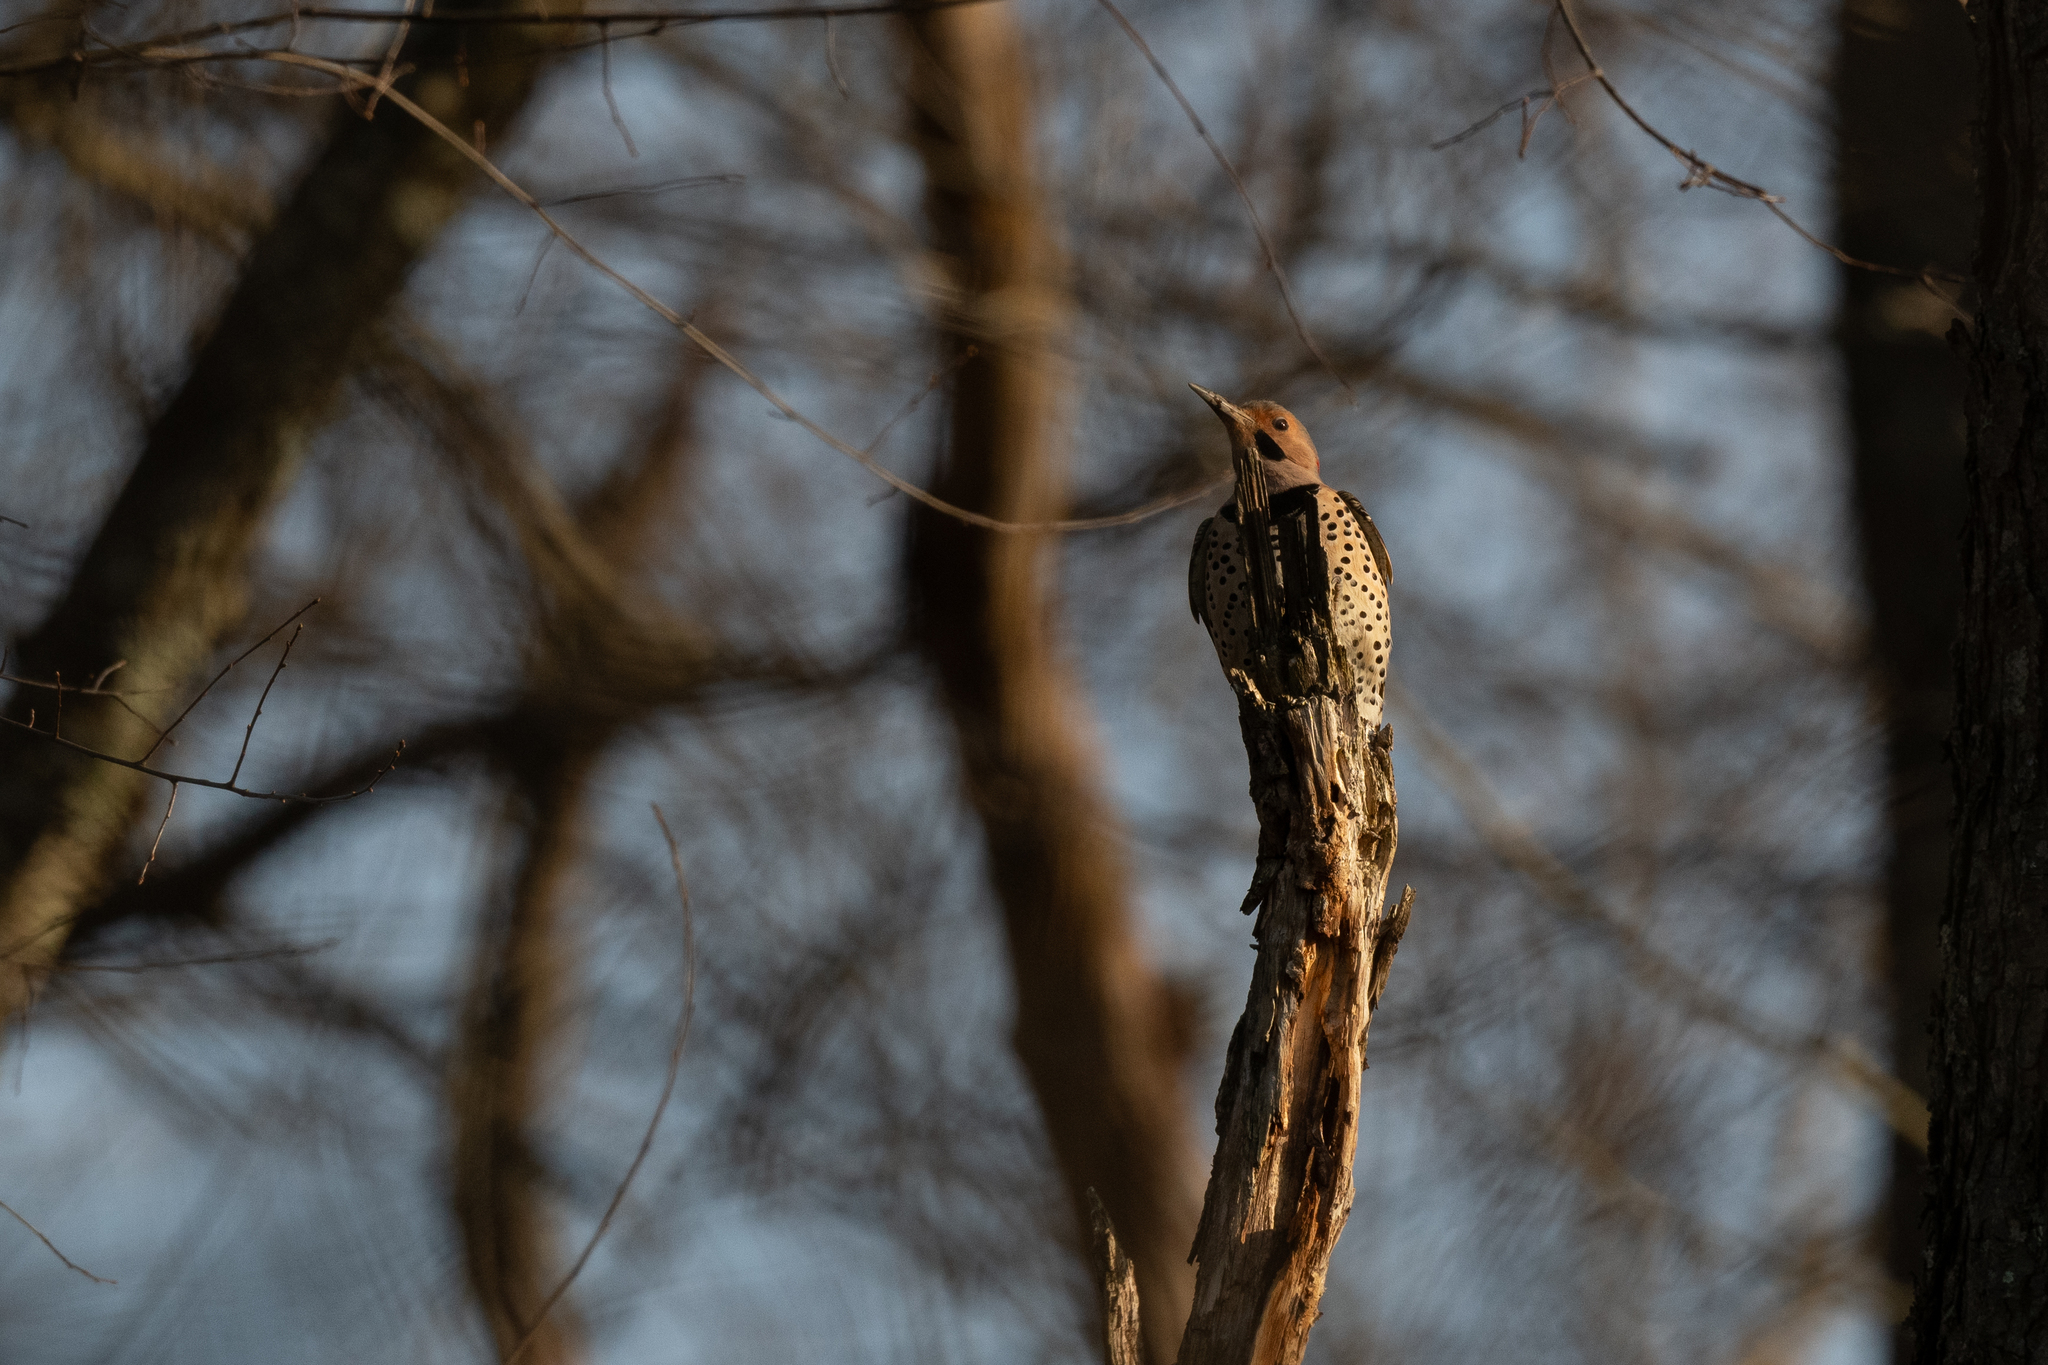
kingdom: Animalia
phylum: Chordata
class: Aves
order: Piciformes
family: Picidae
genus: Colaptes
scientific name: Colaptes auratus
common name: Northern flicker
